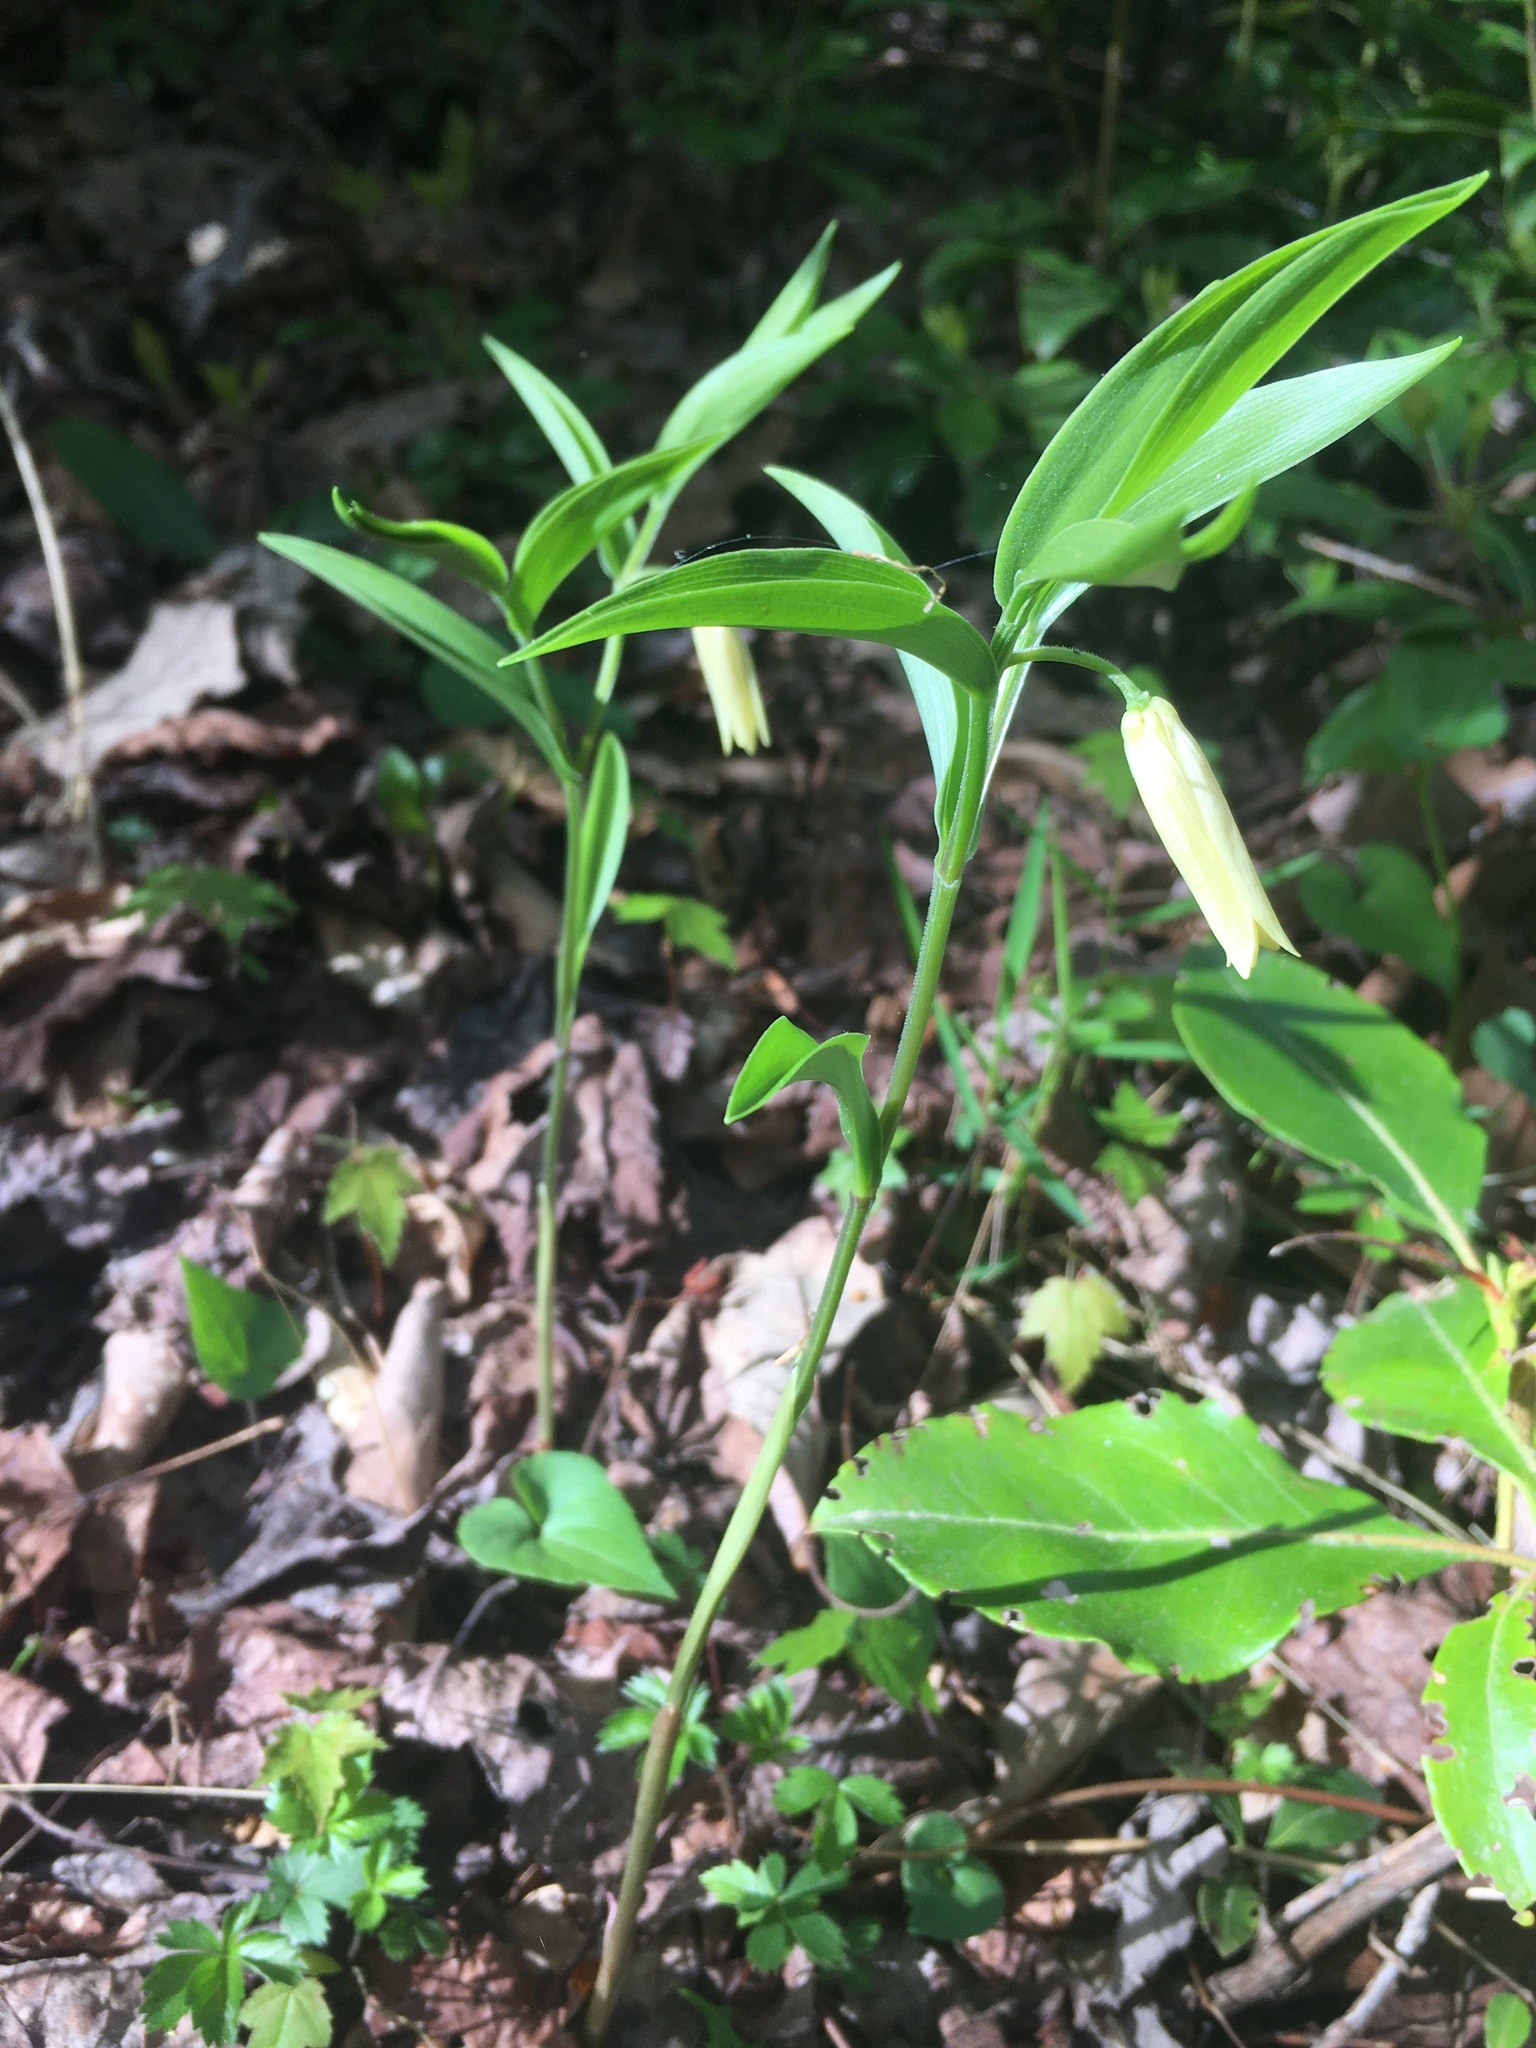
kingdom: Plantae
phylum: Tracheophyta
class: Liliopsida
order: Liliales
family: Colchicaceae
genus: Uvularia
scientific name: Uvularia puberula
